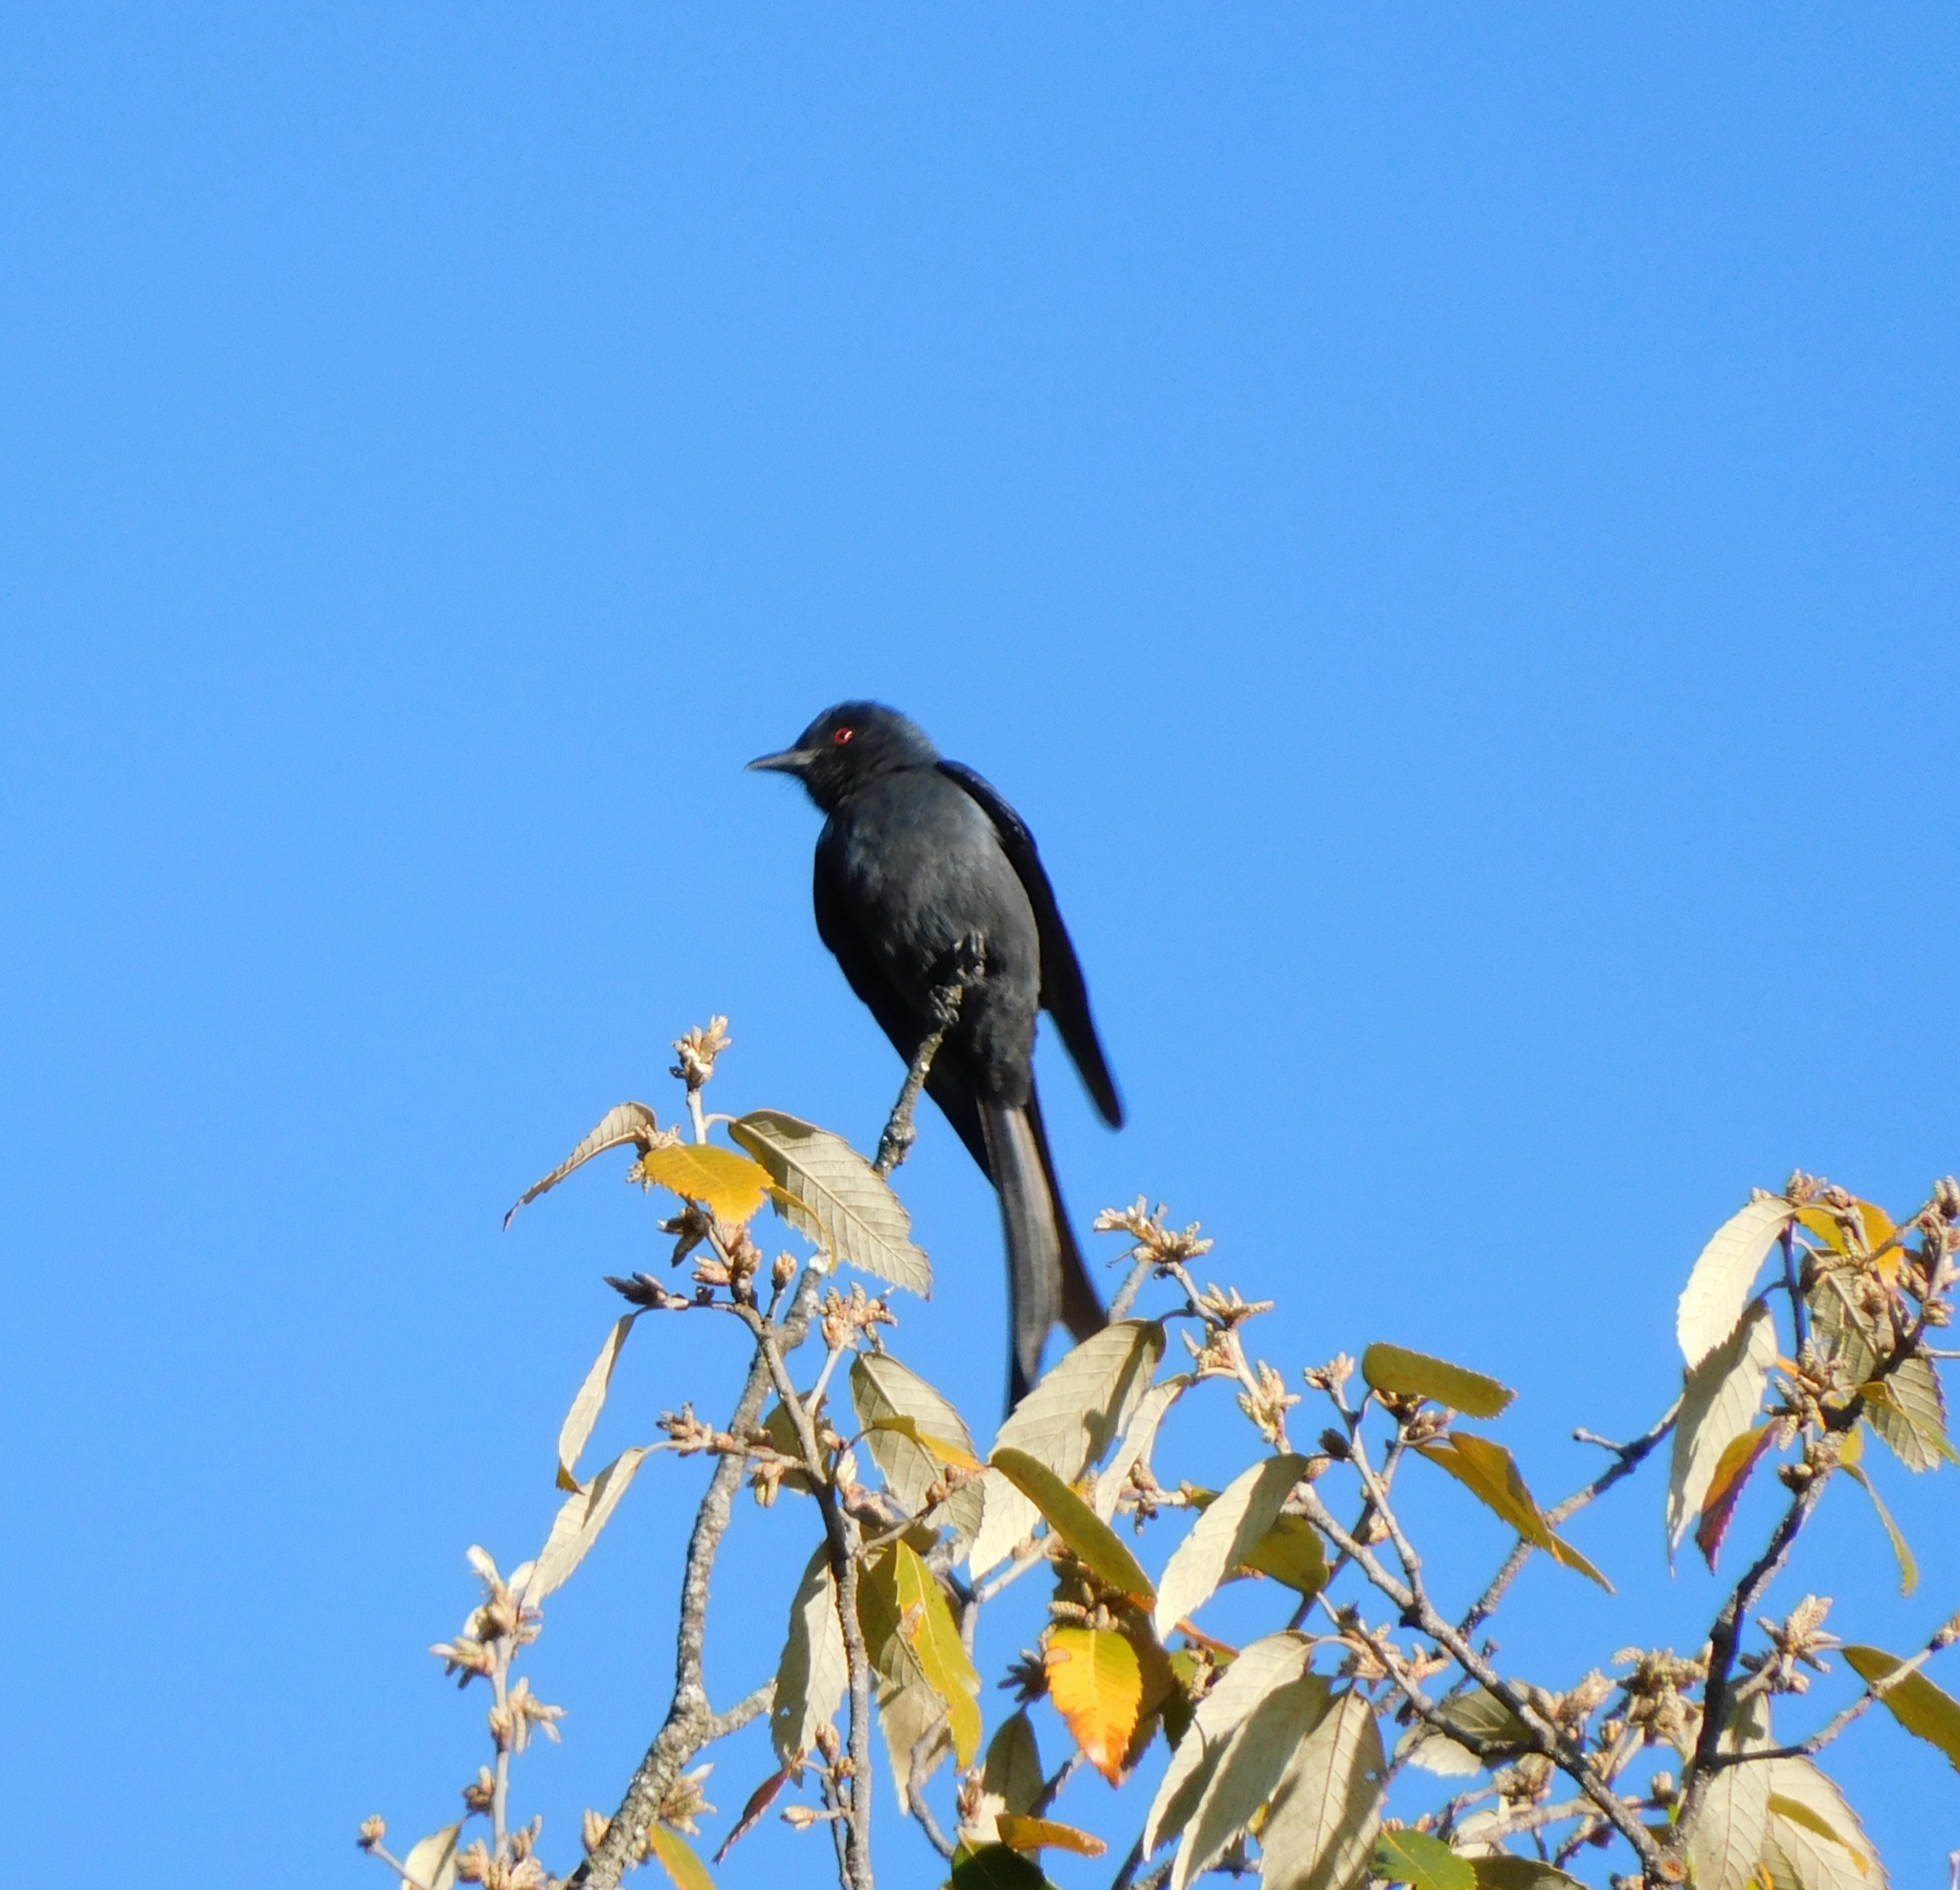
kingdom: Animalia
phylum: Chordata
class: Aves
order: Passeriformes
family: Dicruridae
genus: Dicrurus
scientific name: Dicrurus leucophaeus
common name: Ashy drongo
